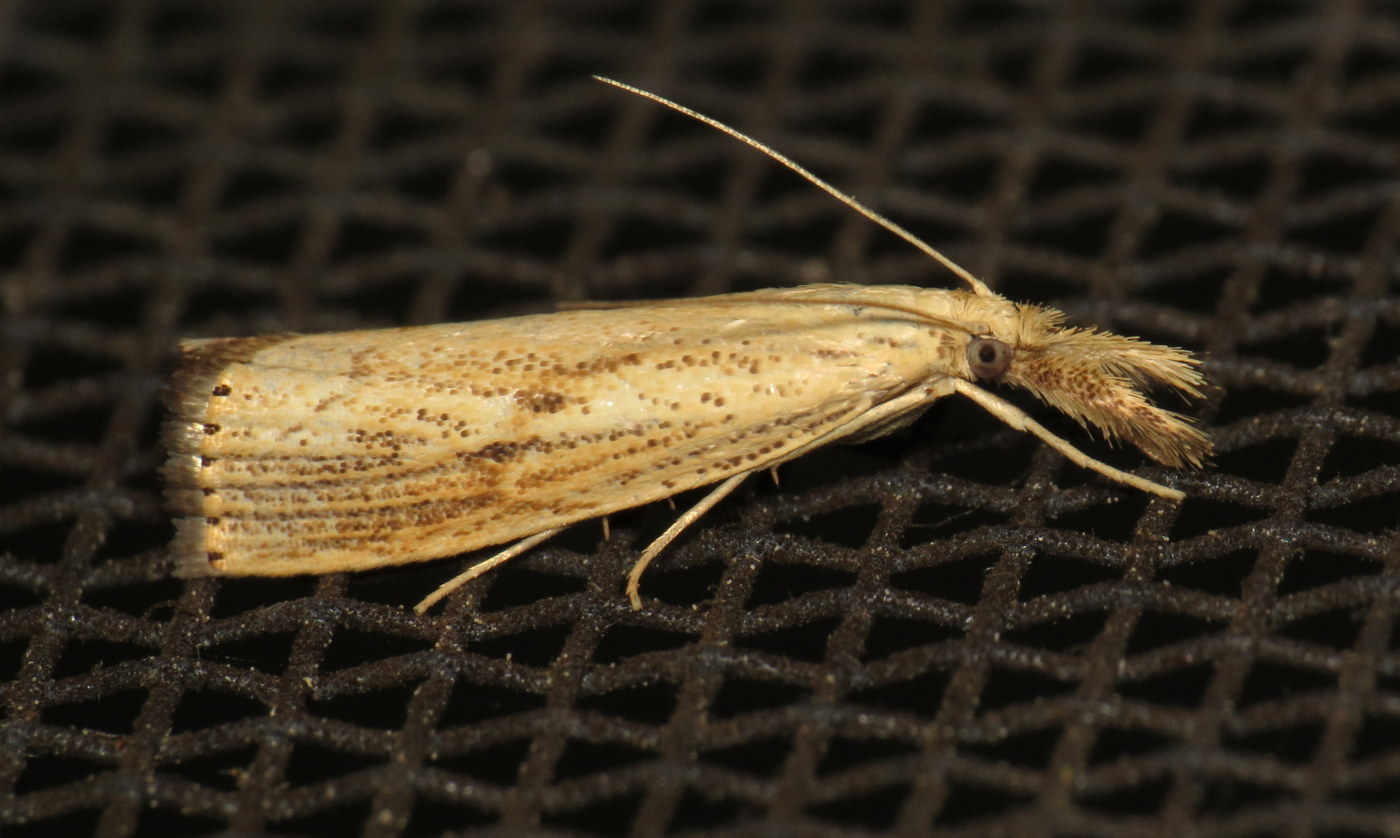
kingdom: Animalia
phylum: Arthropoda
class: Insecta
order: Lepidoptera
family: Crambidae
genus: Agriphila
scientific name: Agriphila ruricolellus
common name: Lesser vagabond sod webworm
